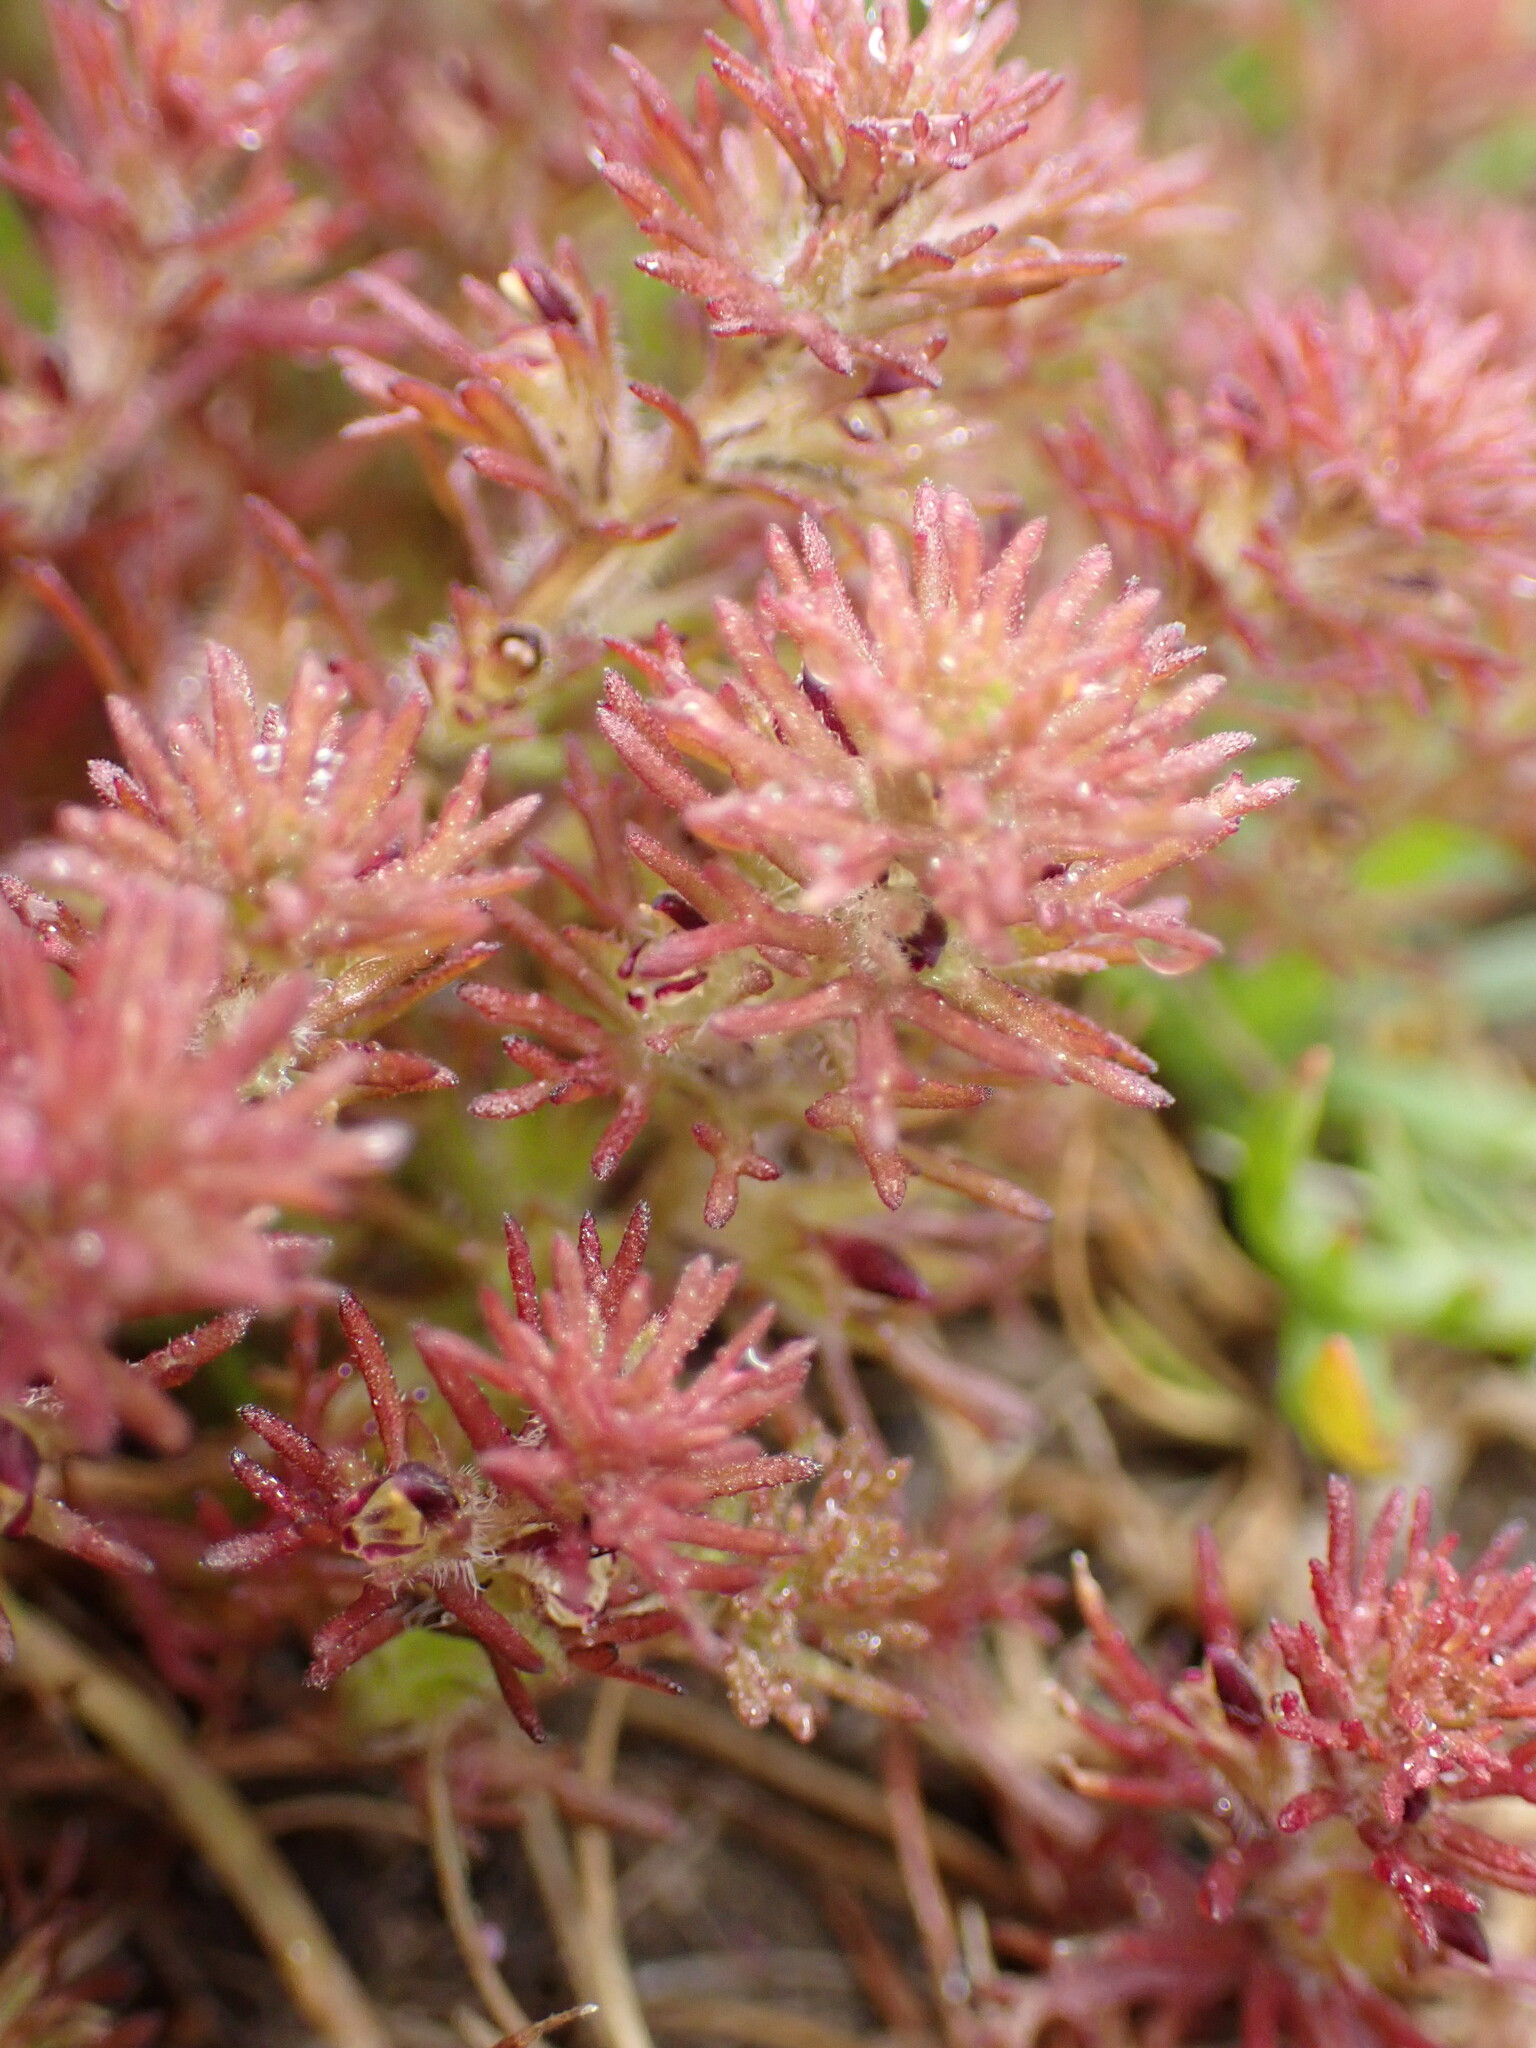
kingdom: Plantae
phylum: Tracheophyta
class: Magnoliopsida
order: Lamiales
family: Orobanchaceae
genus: Triphysaria
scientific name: Triphysaria pusilla
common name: Dwarf false owl-clover
